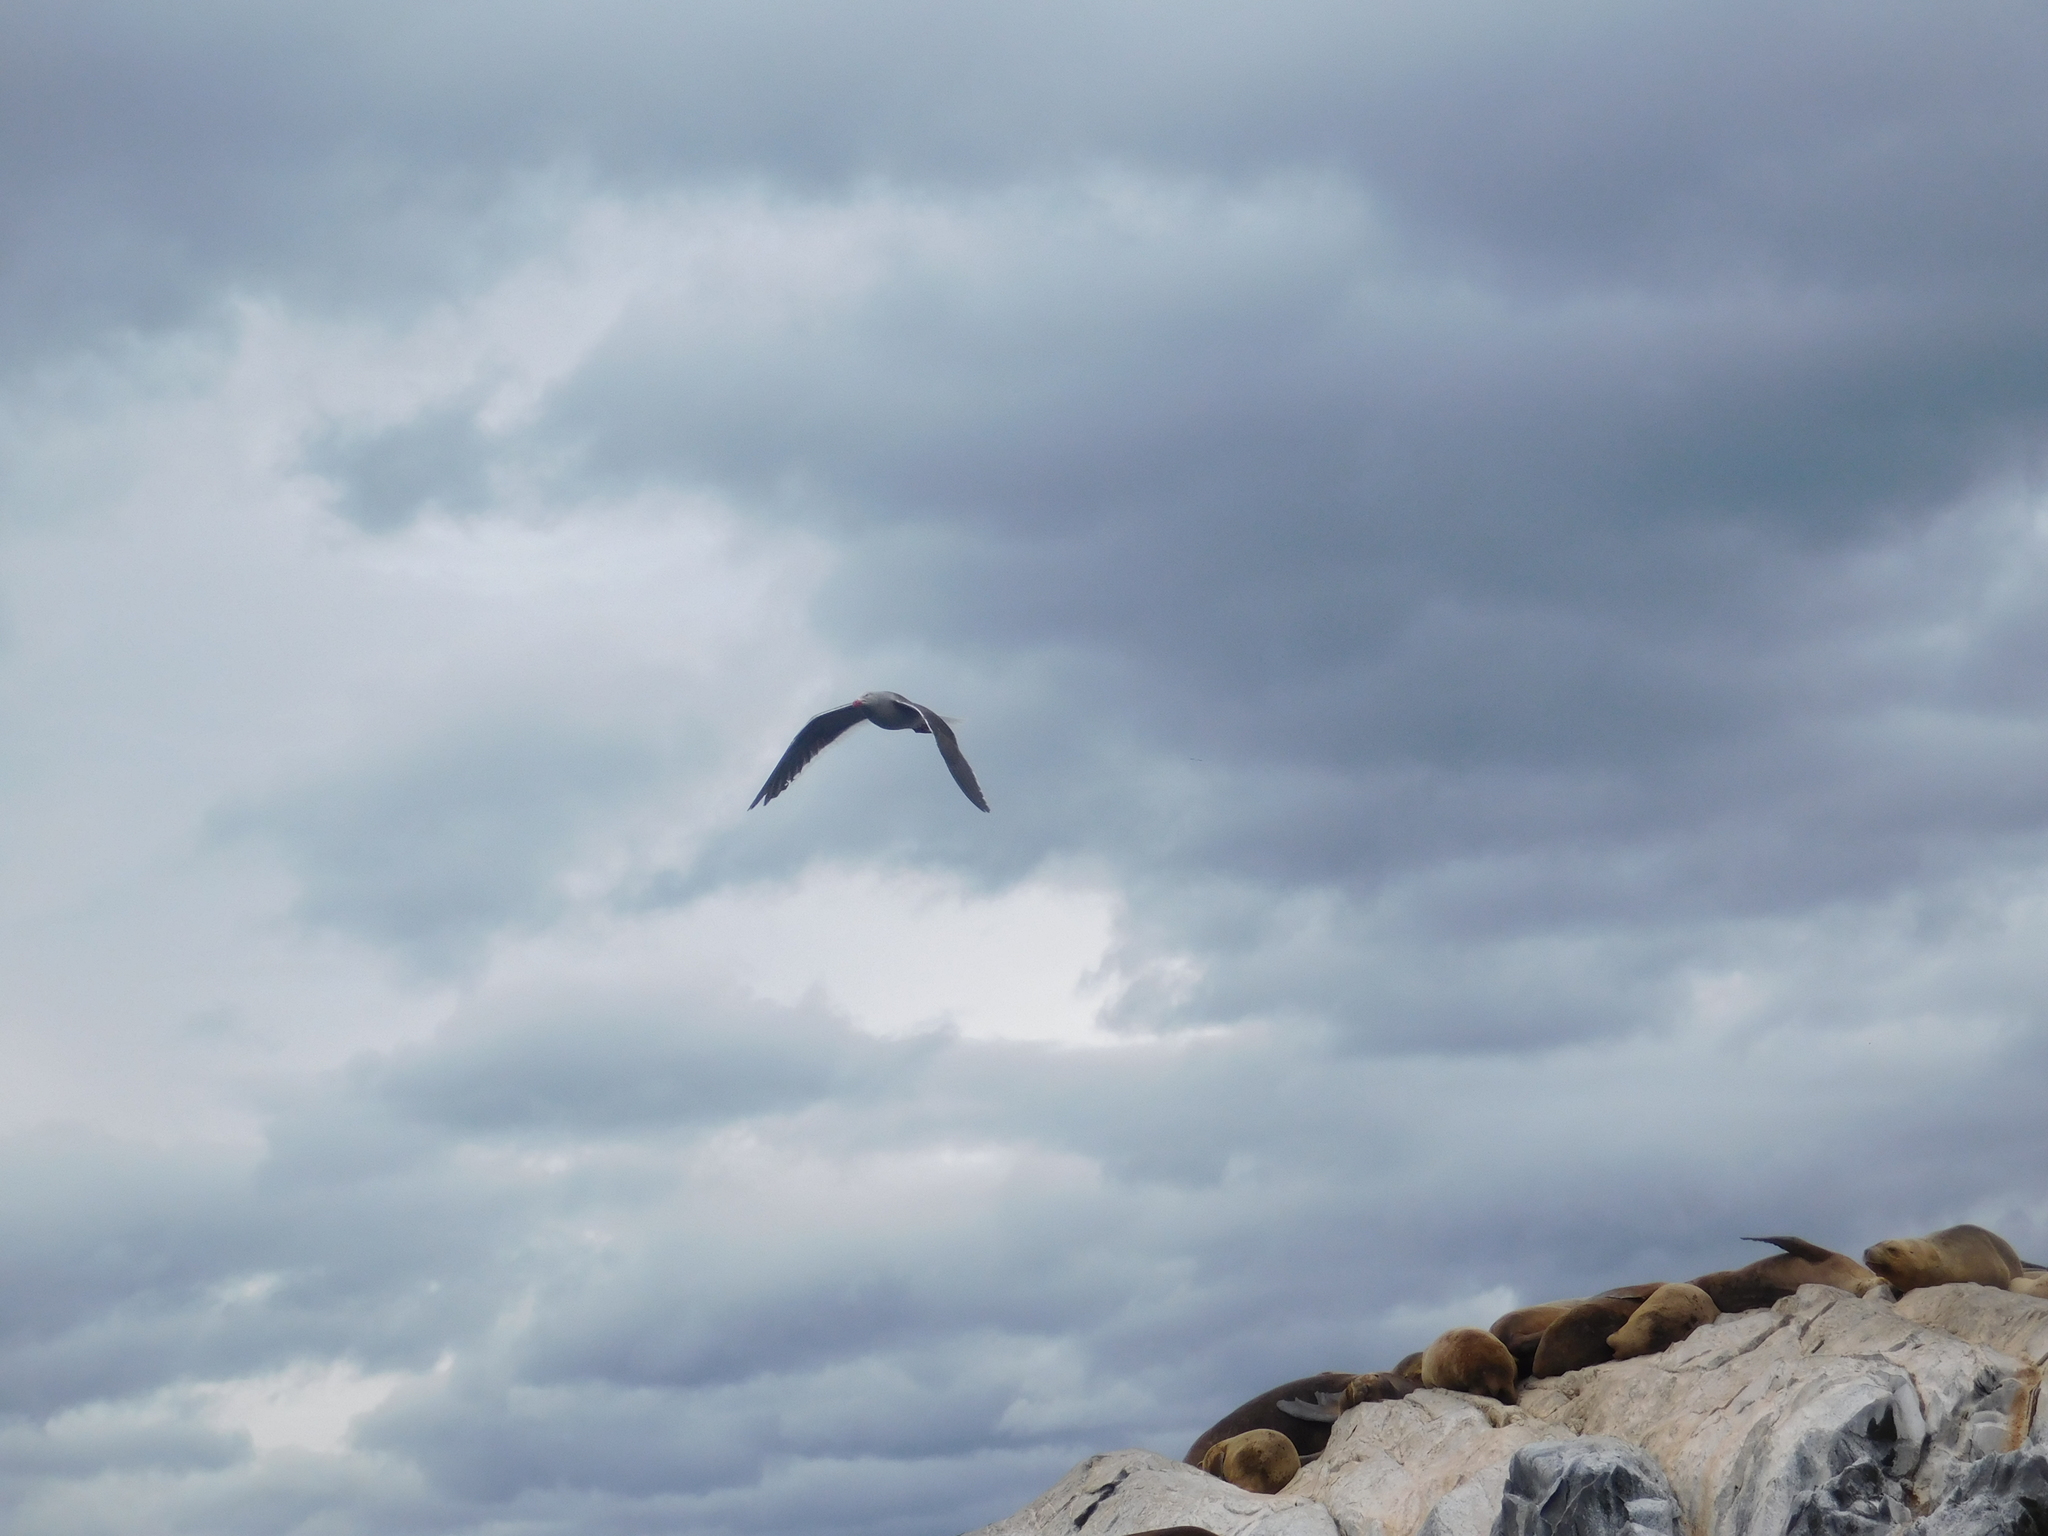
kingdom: Animalia
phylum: Chordata
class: Aves
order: Charadriiformes
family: Laridae
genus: Leucophaeus
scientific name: Leucophaeus scoresbii
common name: Dolphin gull
